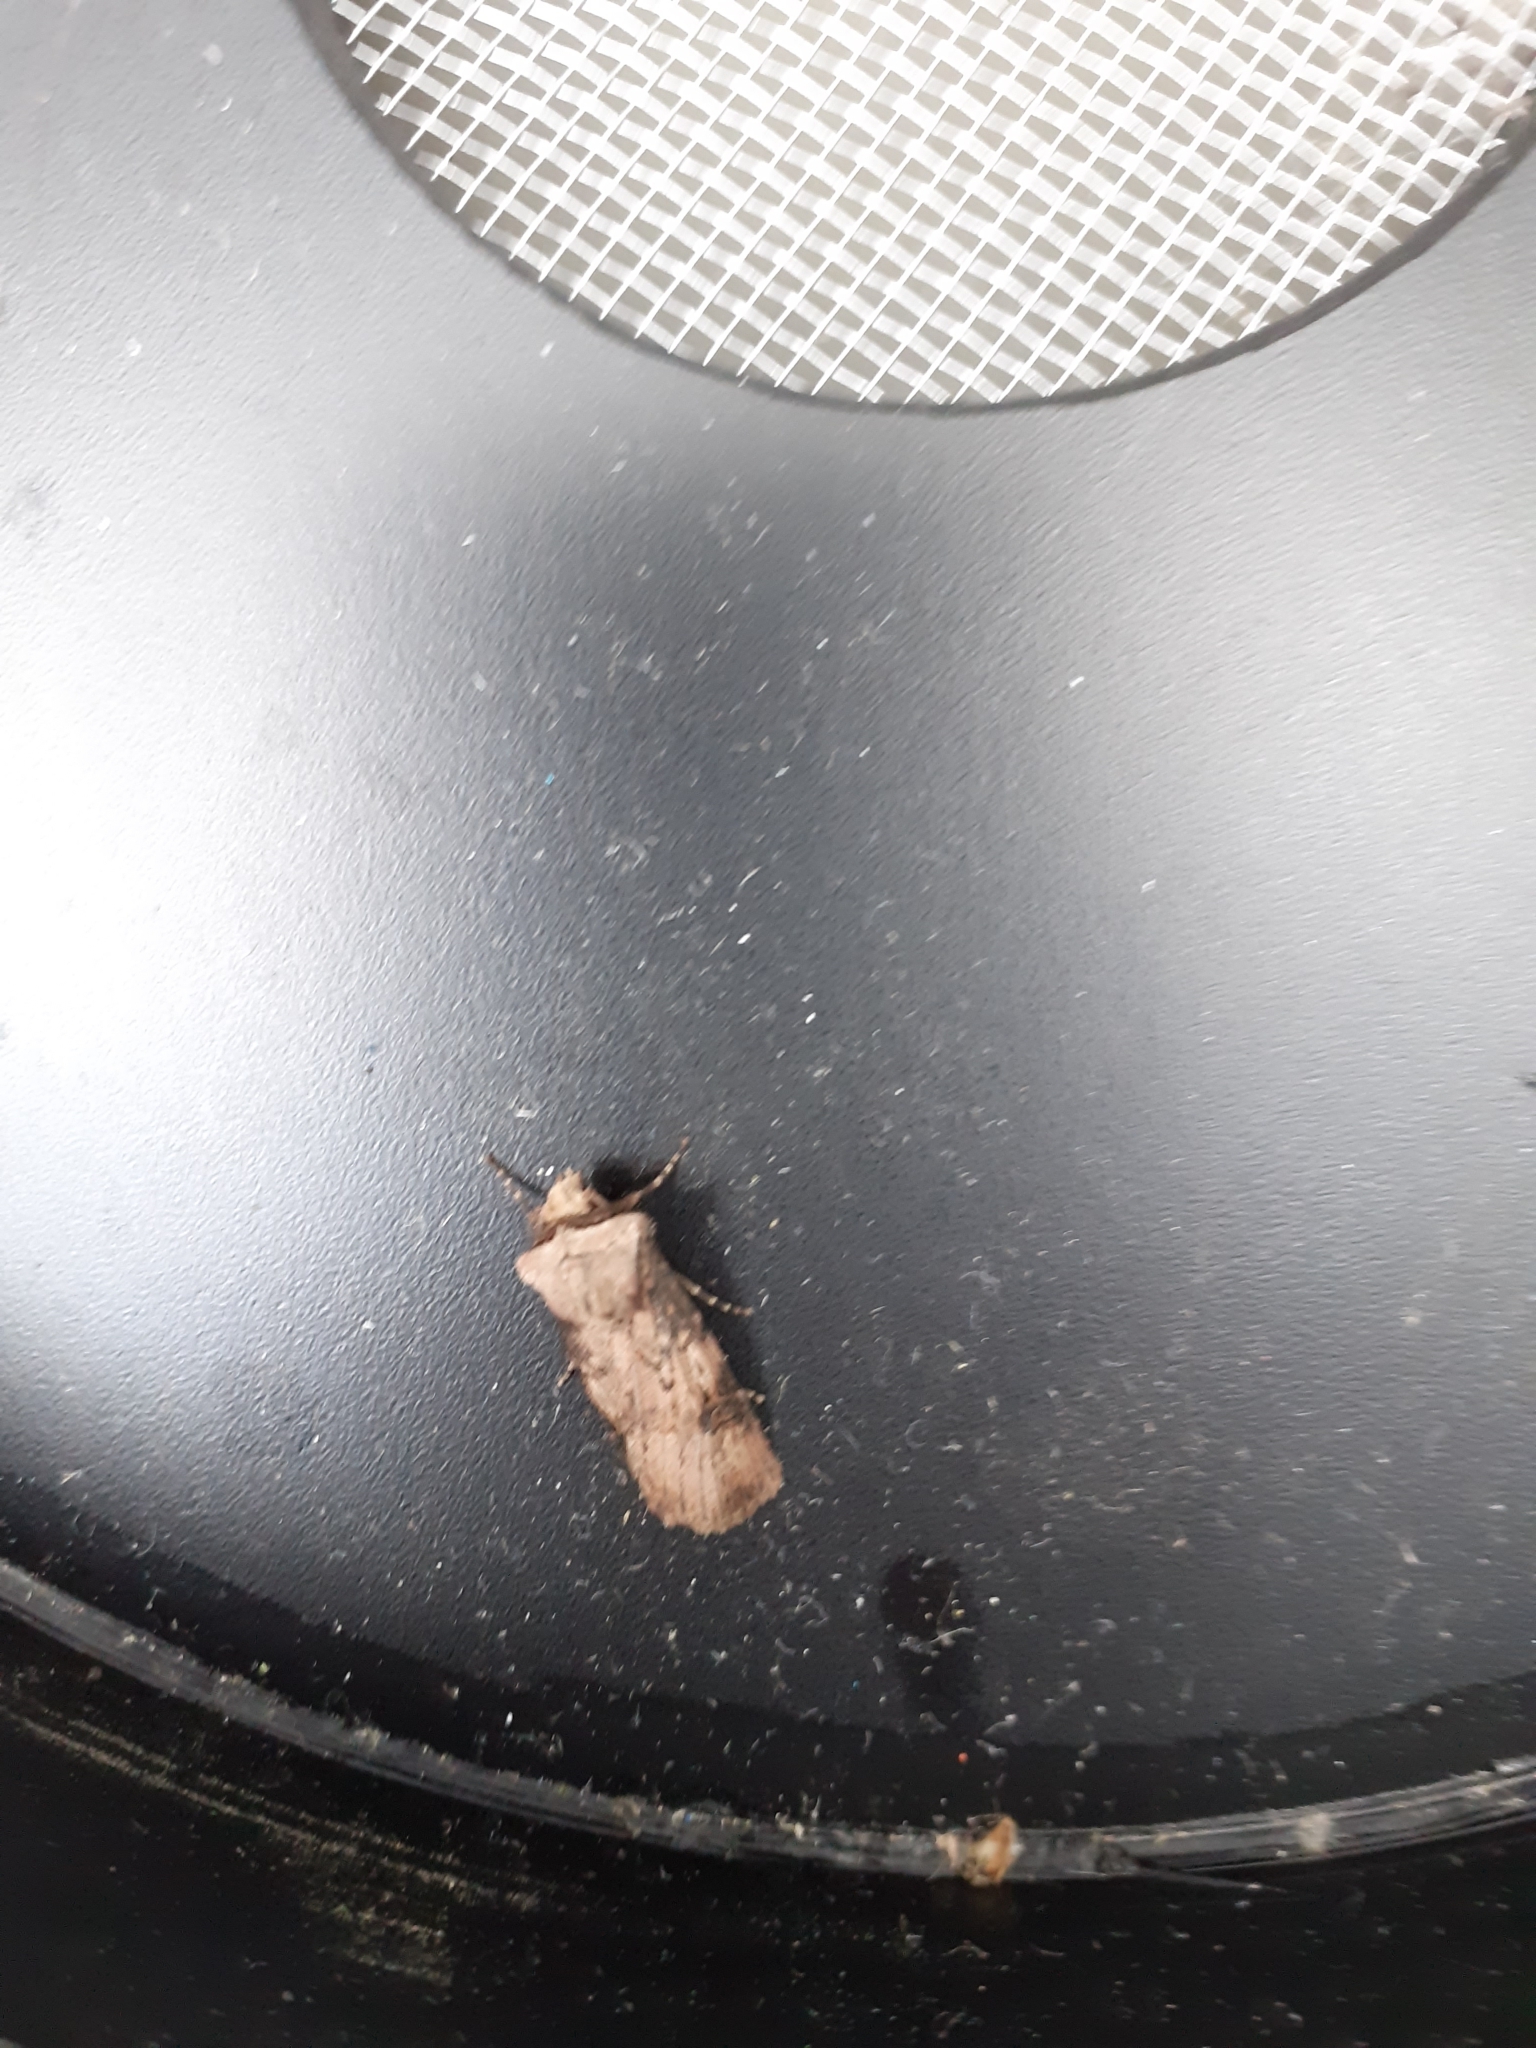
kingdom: Animalia
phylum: Arthropoda
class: Insecta
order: Lepidoptera
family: Noctuidae
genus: Agrotis
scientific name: Agrotis puta
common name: Shuttle-shaped dart
